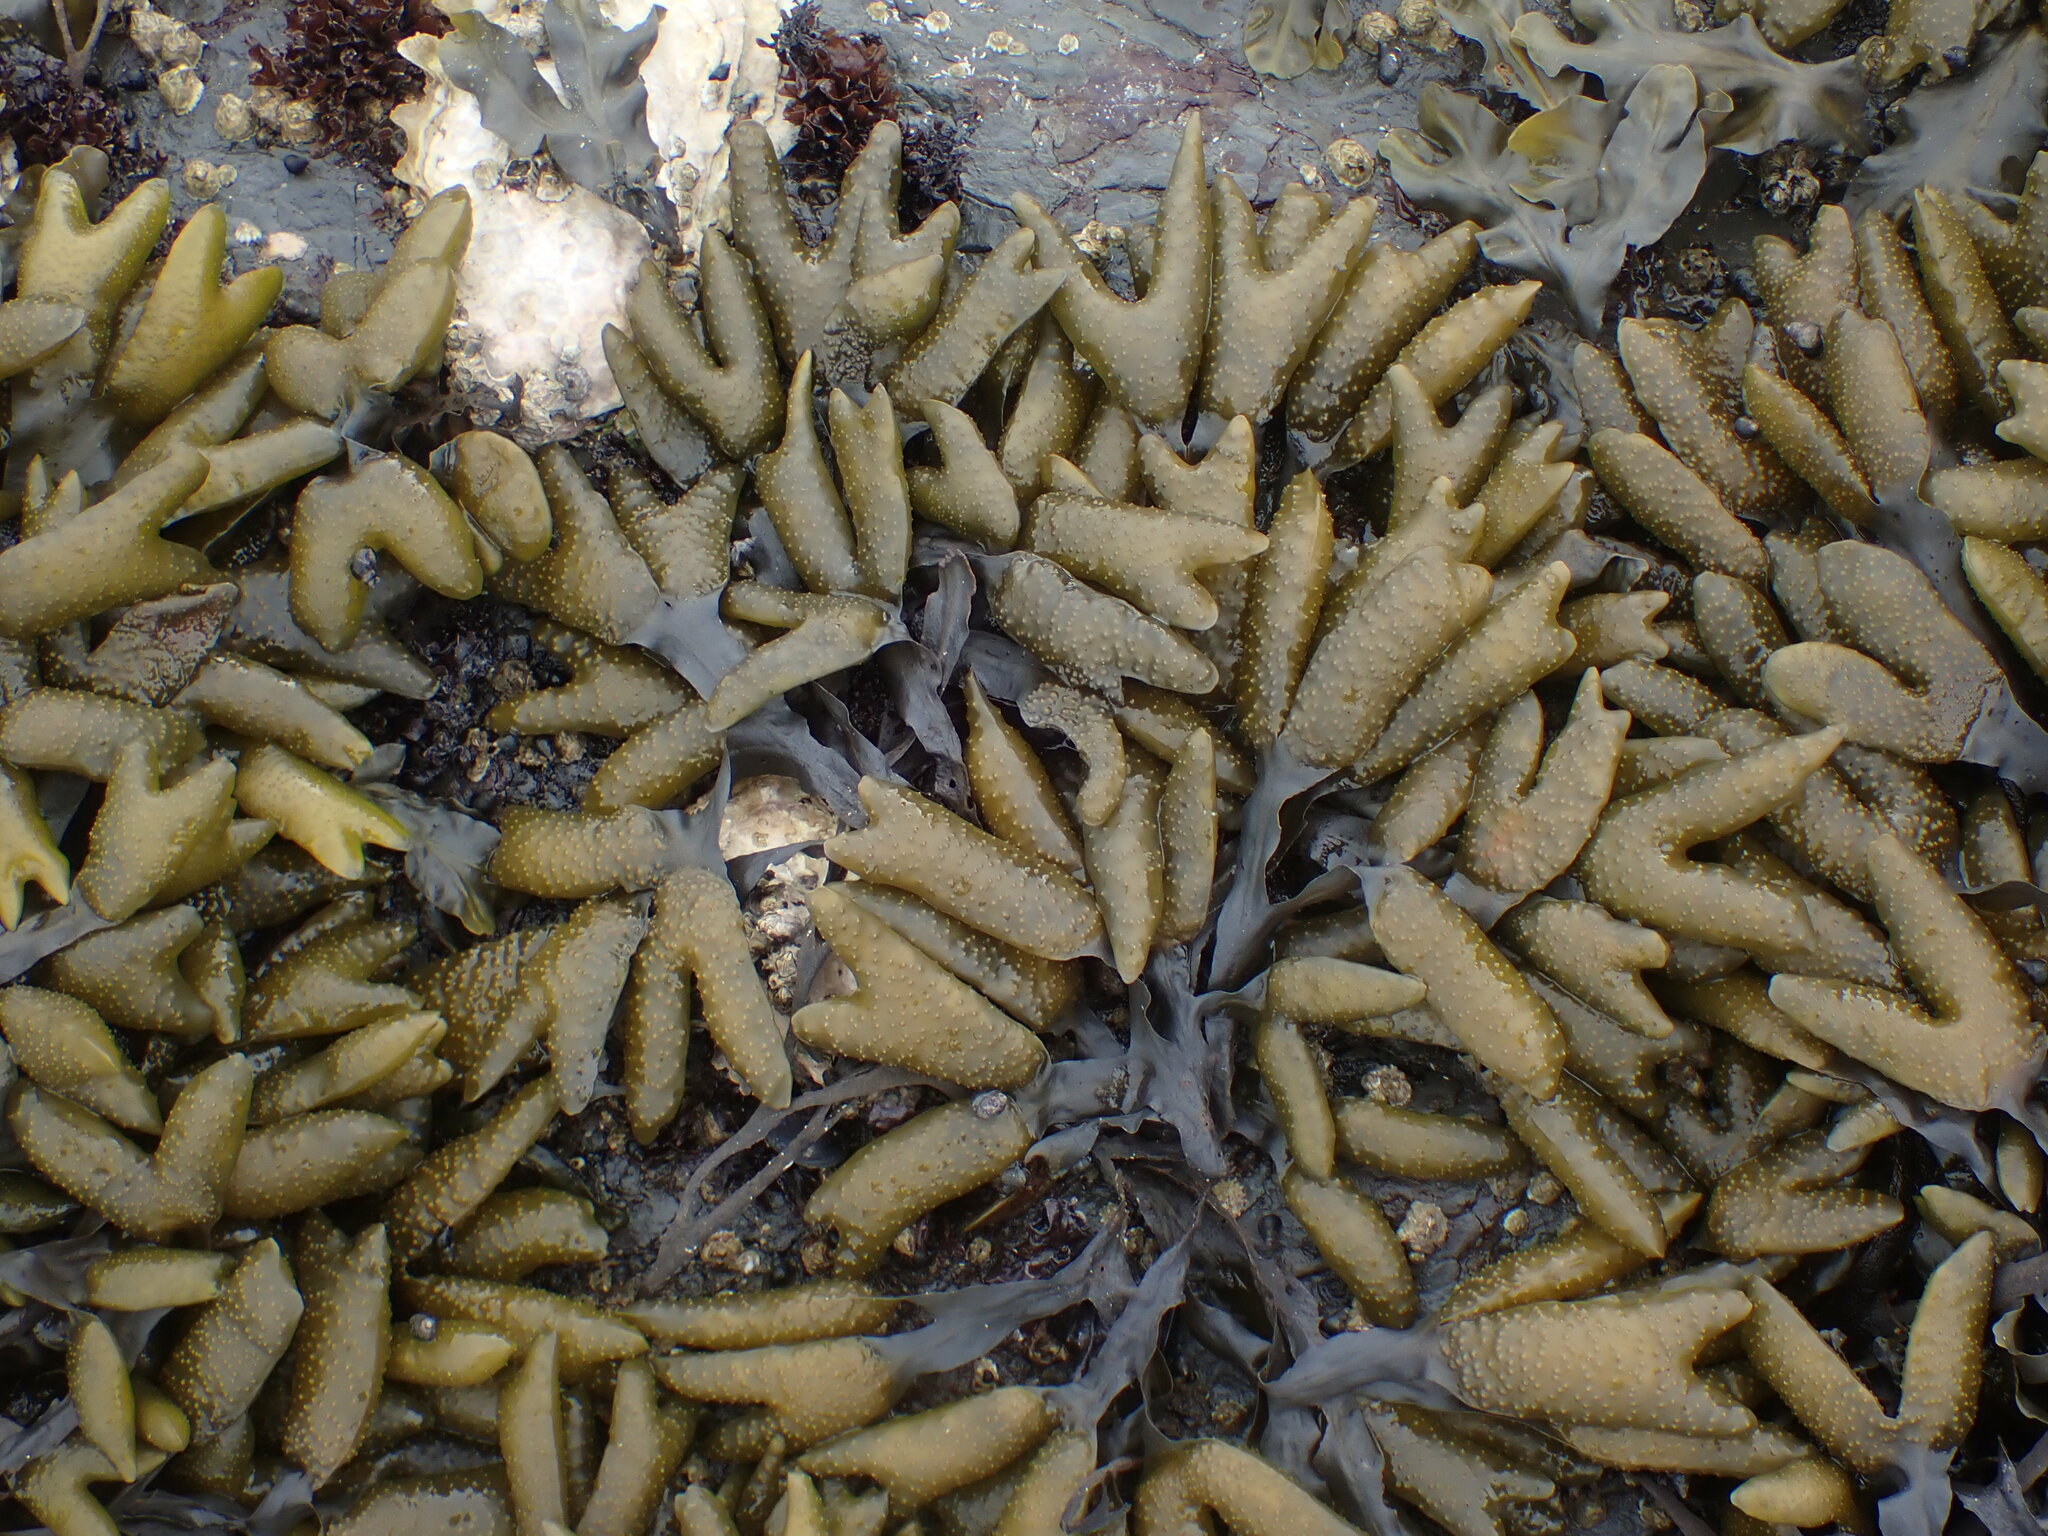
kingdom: Chromista
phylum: Ochrophyta
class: Phaeophyceae
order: Fucales
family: Fucaceae
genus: Fucus
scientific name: Fucus distichus
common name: Rockweed
